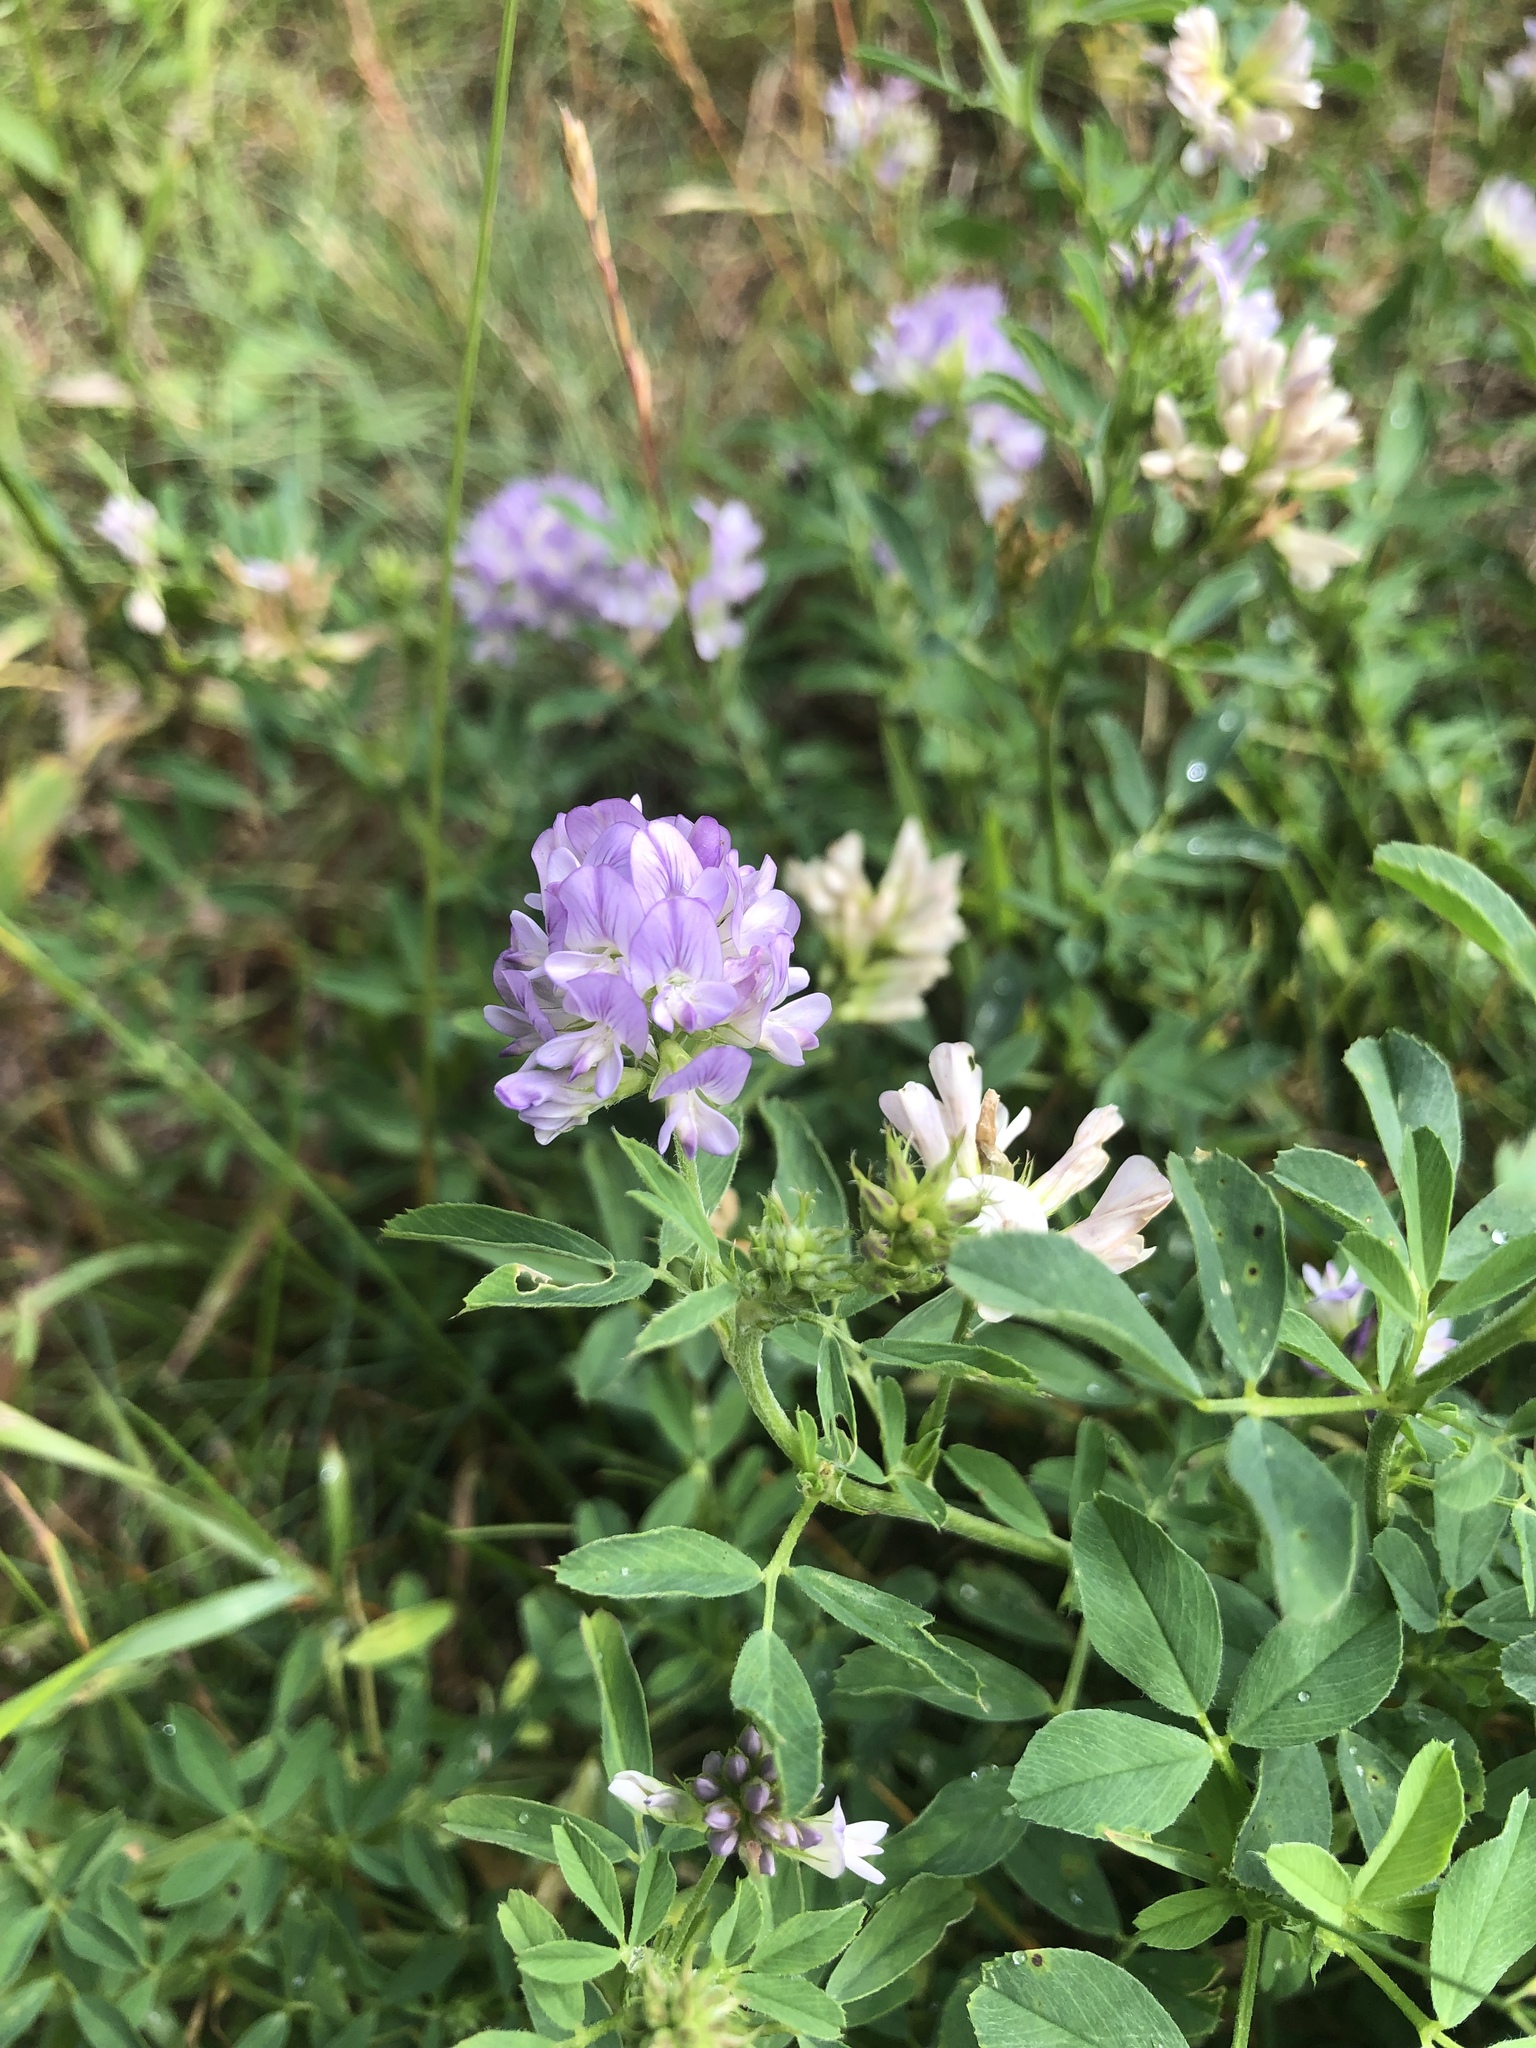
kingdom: Plantae
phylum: Tracheophyta
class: Magnoliopsida
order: Fabales
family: Fabaceae
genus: Medicago
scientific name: Medicago sativa
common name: Alfalfa
